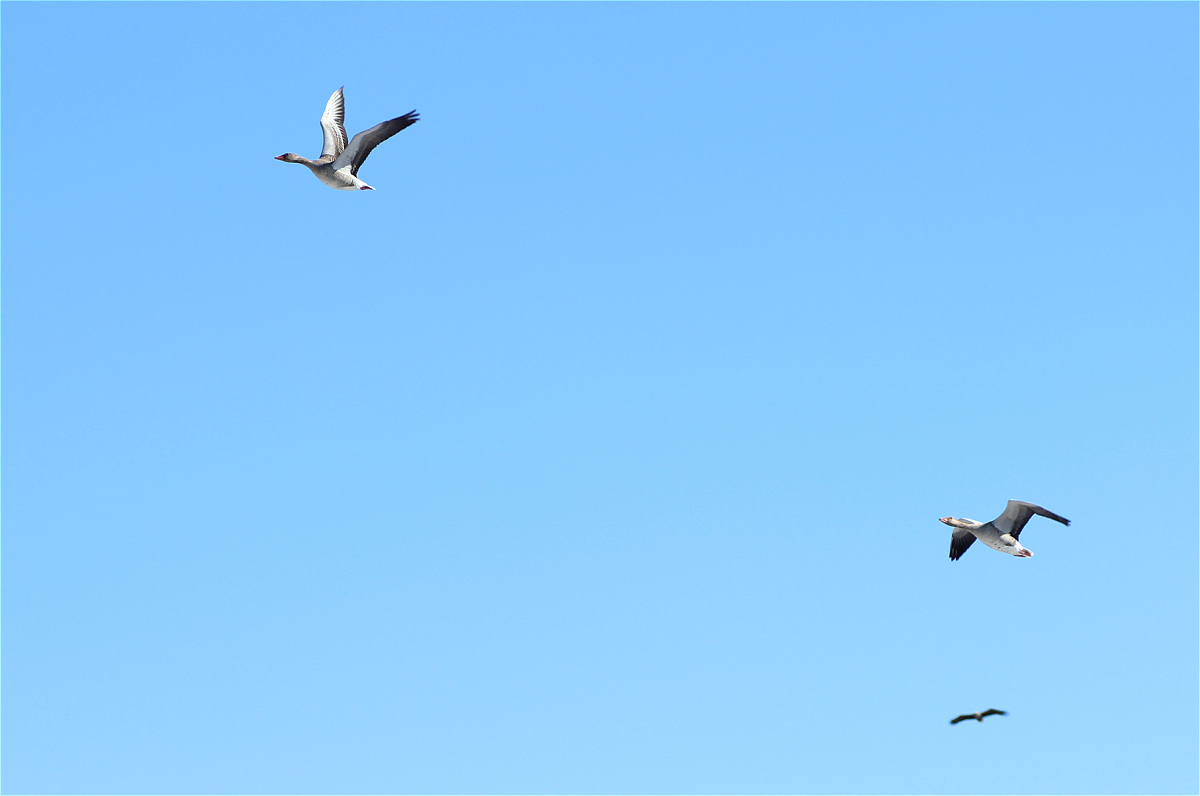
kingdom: Animalia
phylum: Chordata
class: Aves
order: Anseriformes
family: Anatidae
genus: Anser
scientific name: Anser anser
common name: Greylag goose
